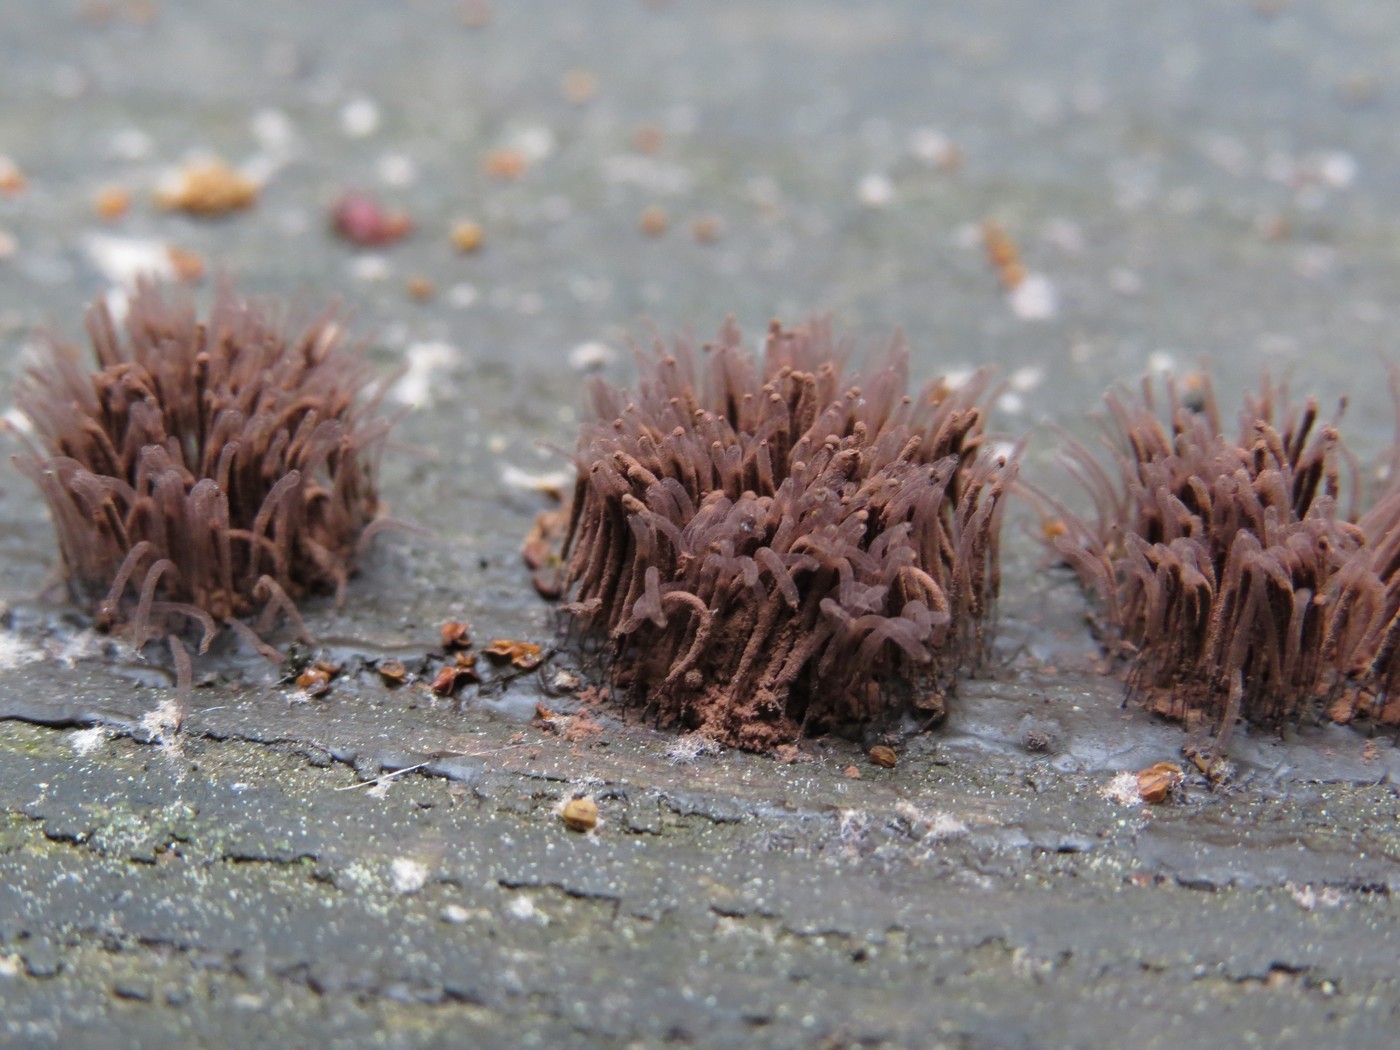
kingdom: Protozoa
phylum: Mycetozoa
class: Myxomycetes
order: Stemonitidales
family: Stemonitidaceae
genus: Stemonitis
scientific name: Stemonitis splendens
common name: Chocolate tube slime
